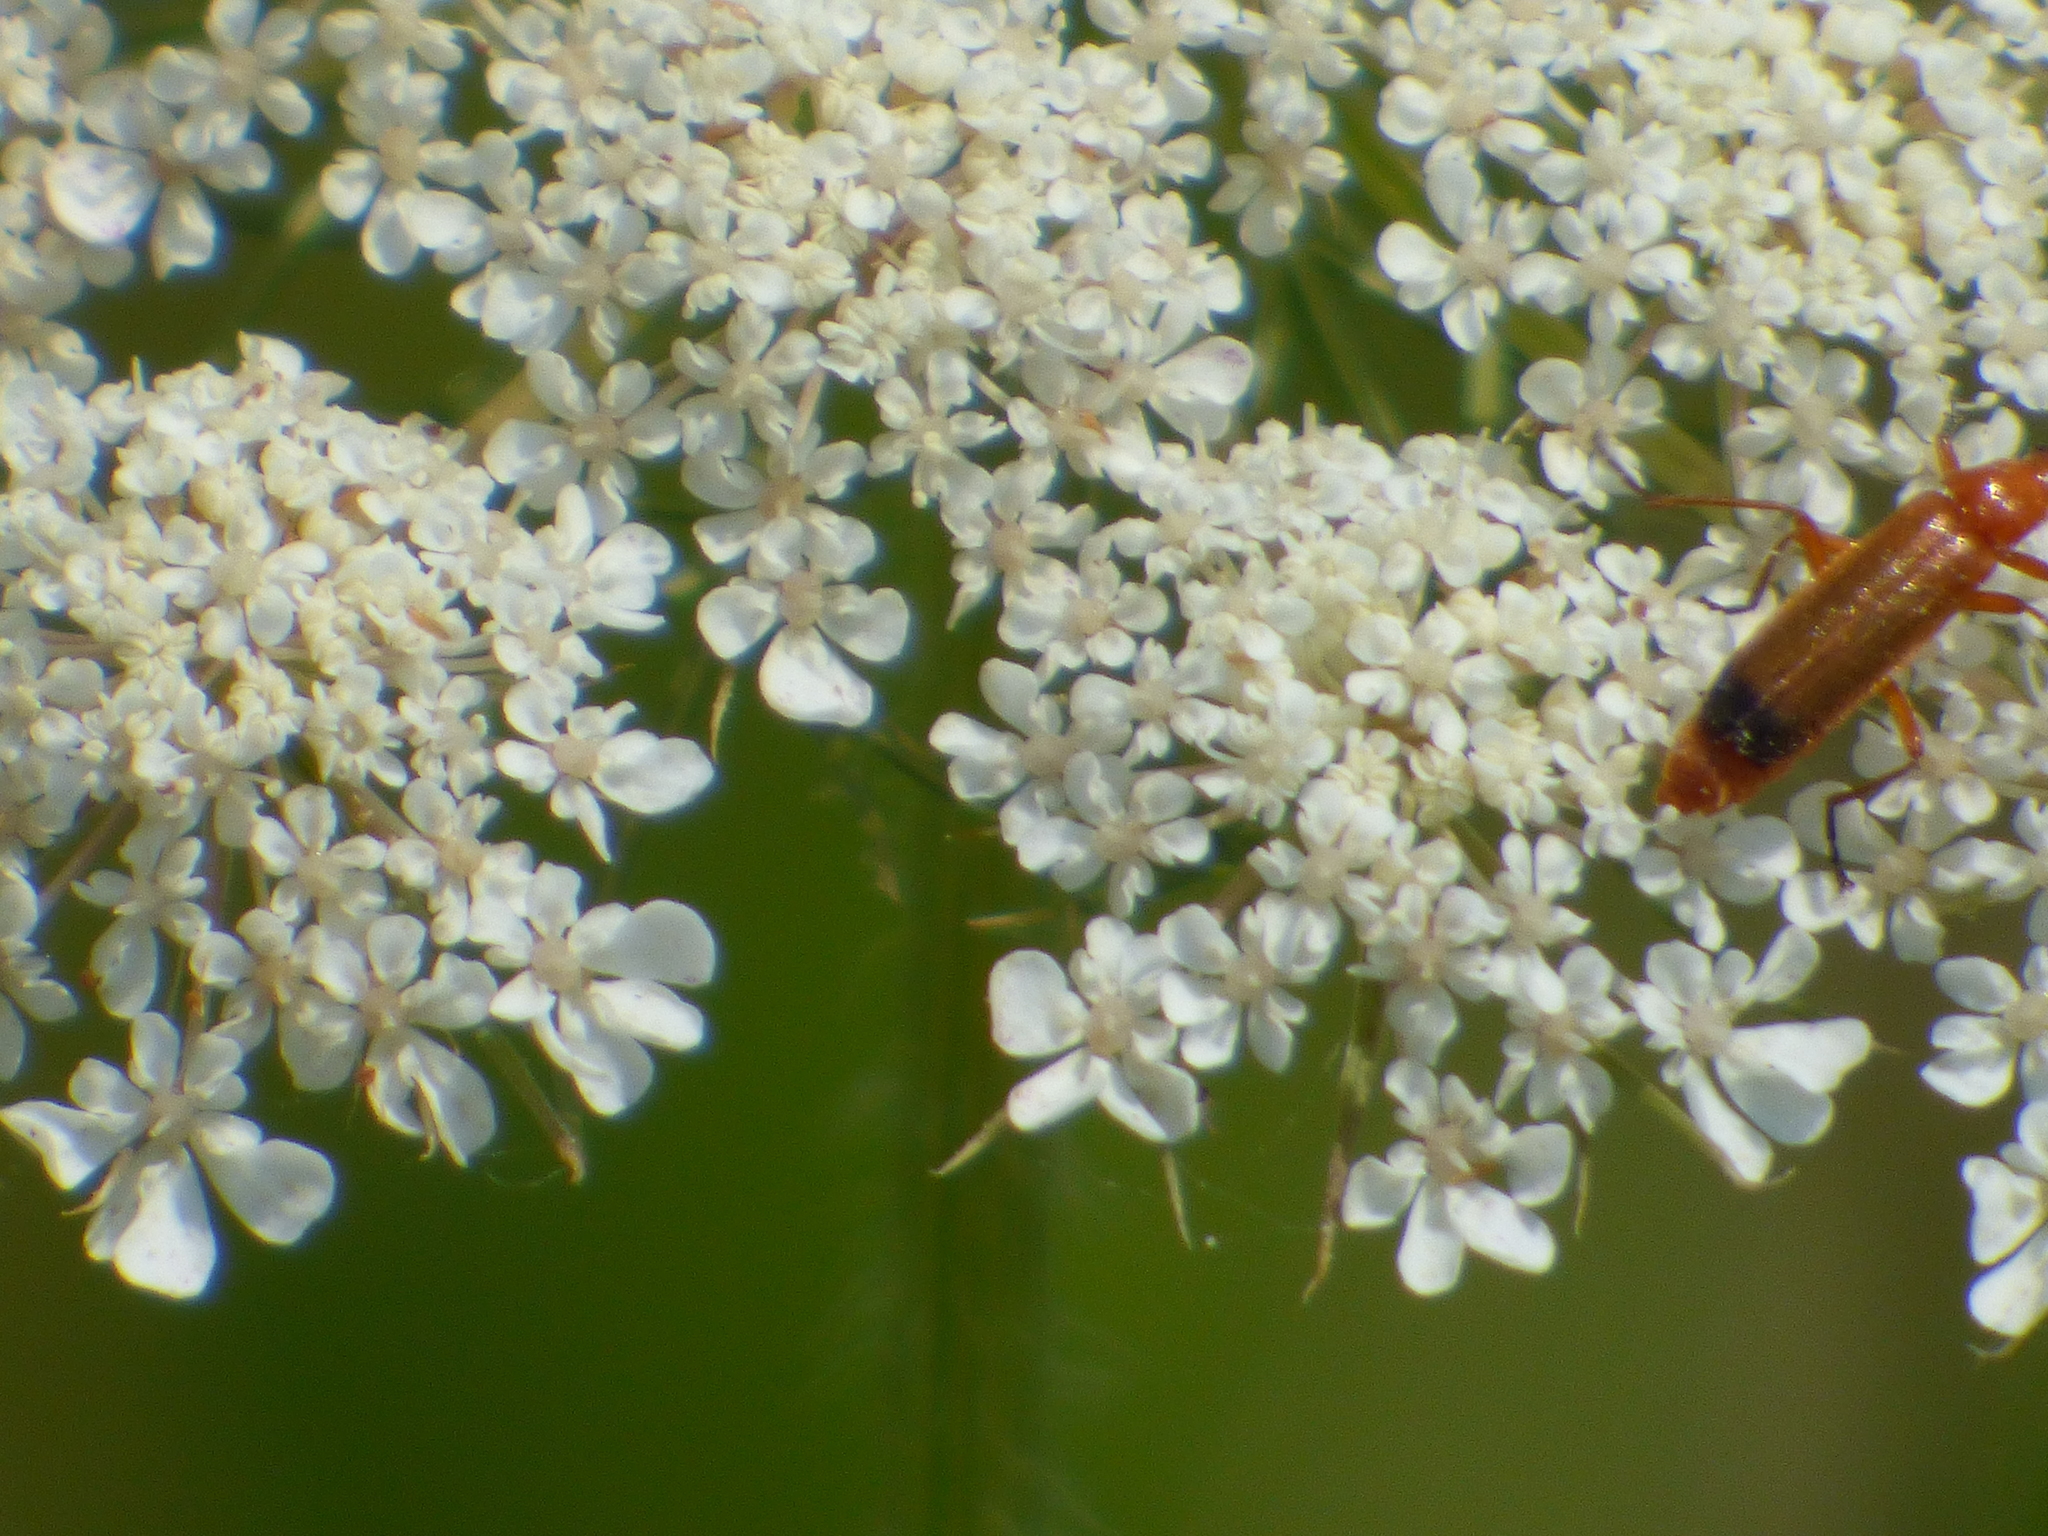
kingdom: Animalia
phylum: Arthropoda
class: Insecta
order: Coleoptera
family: Cantharidae
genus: Rhagonycha
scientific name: Rhagonycha fulva
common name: Common red soldier beetle
